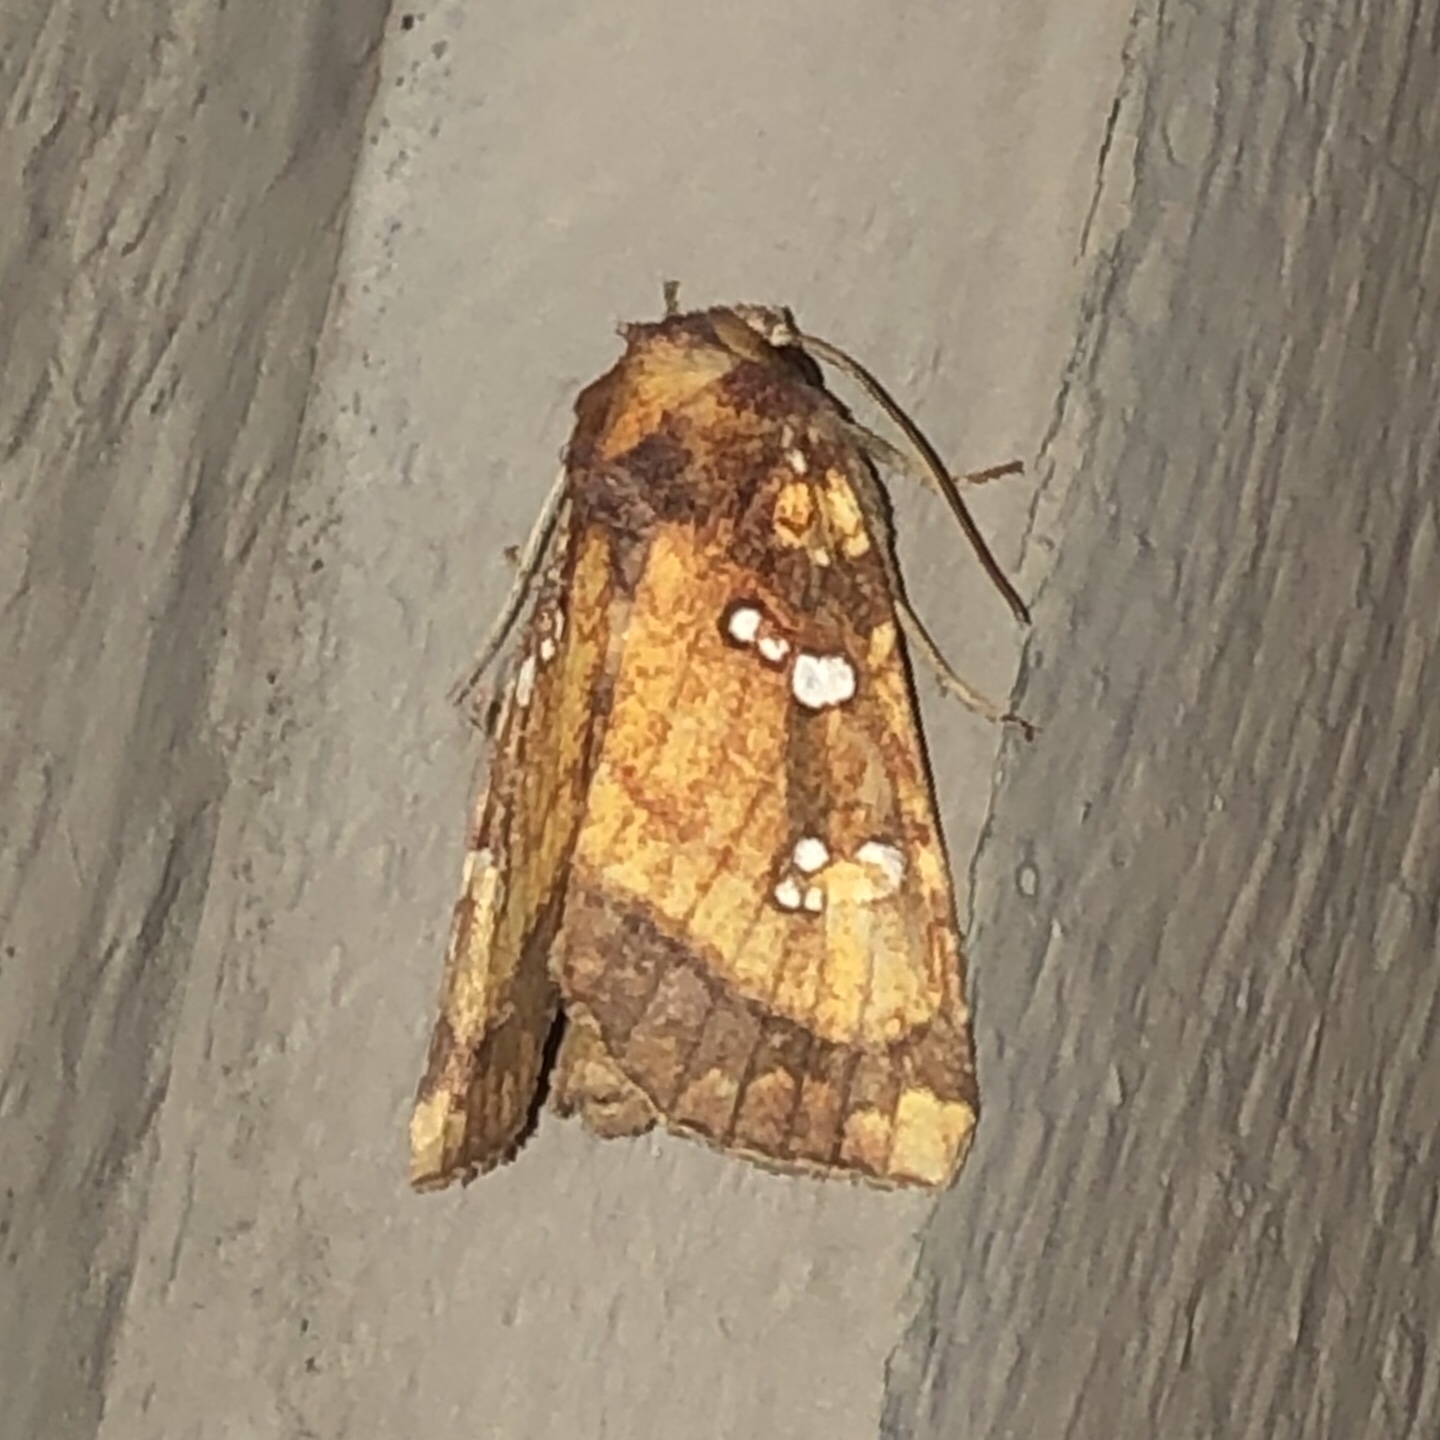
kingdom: Animalia
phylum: Arthropoda
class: Insecta
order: Lepidoptera
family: Noctuidae
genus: Papaipema
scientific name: Papaipema arctivorens
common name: Northern burdock borer moth
